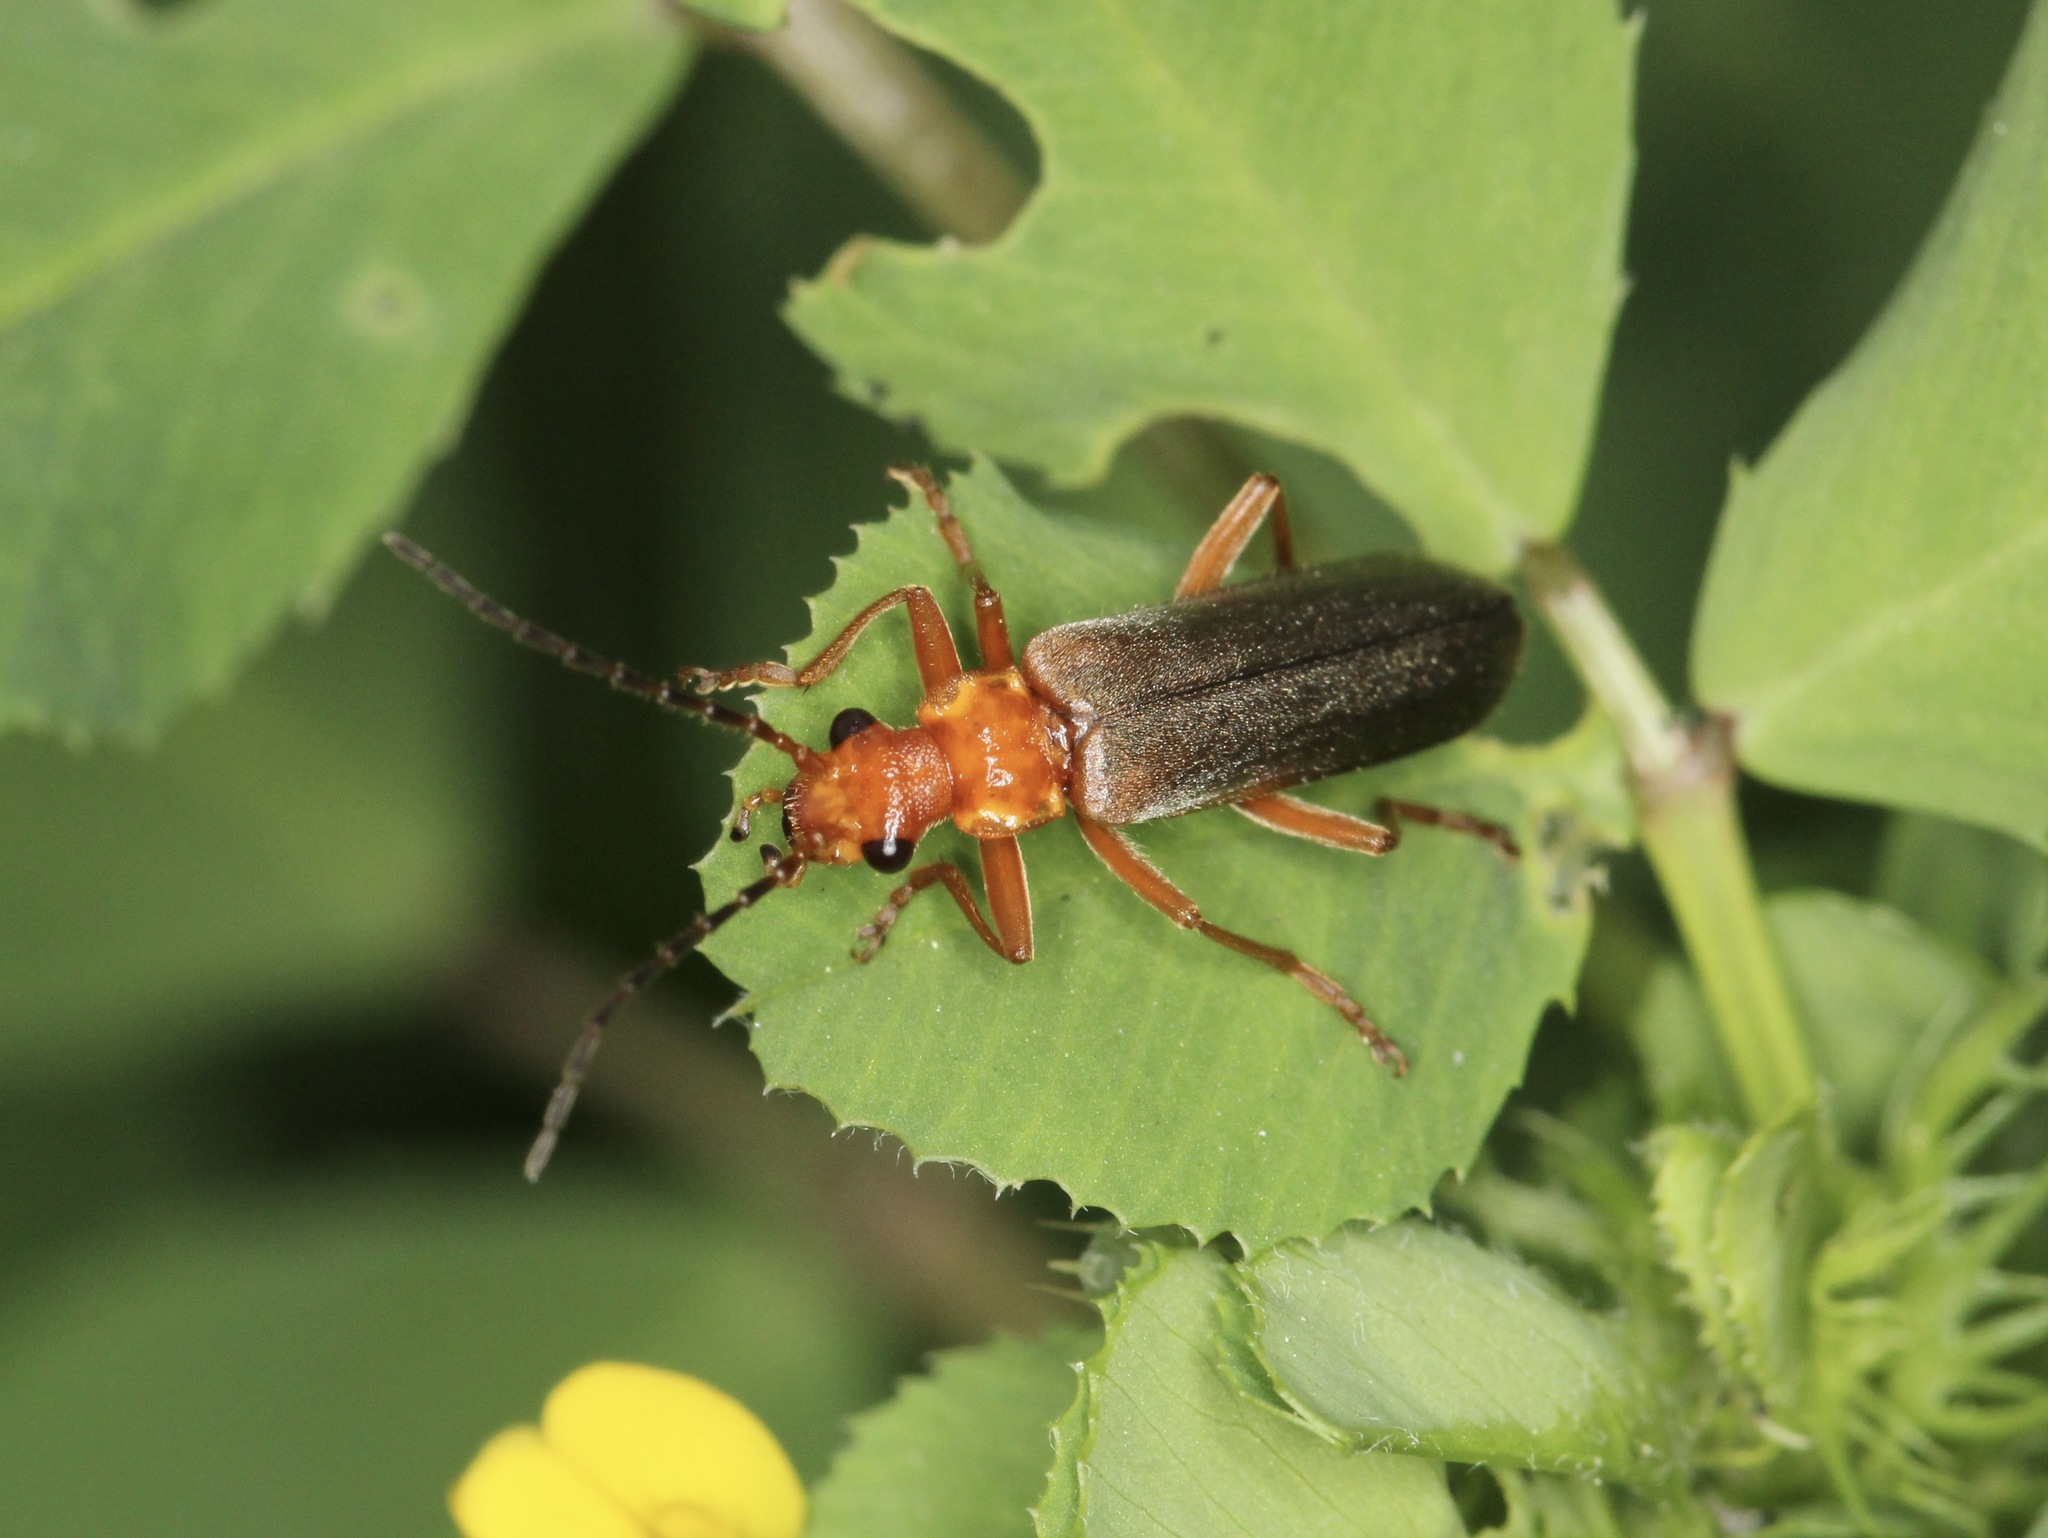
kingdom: Animalia
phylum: Arthropoda
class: Insecta
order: Coleoptera
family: Cantharidae
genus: Podabrus
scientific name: Podabrus pruinosus
